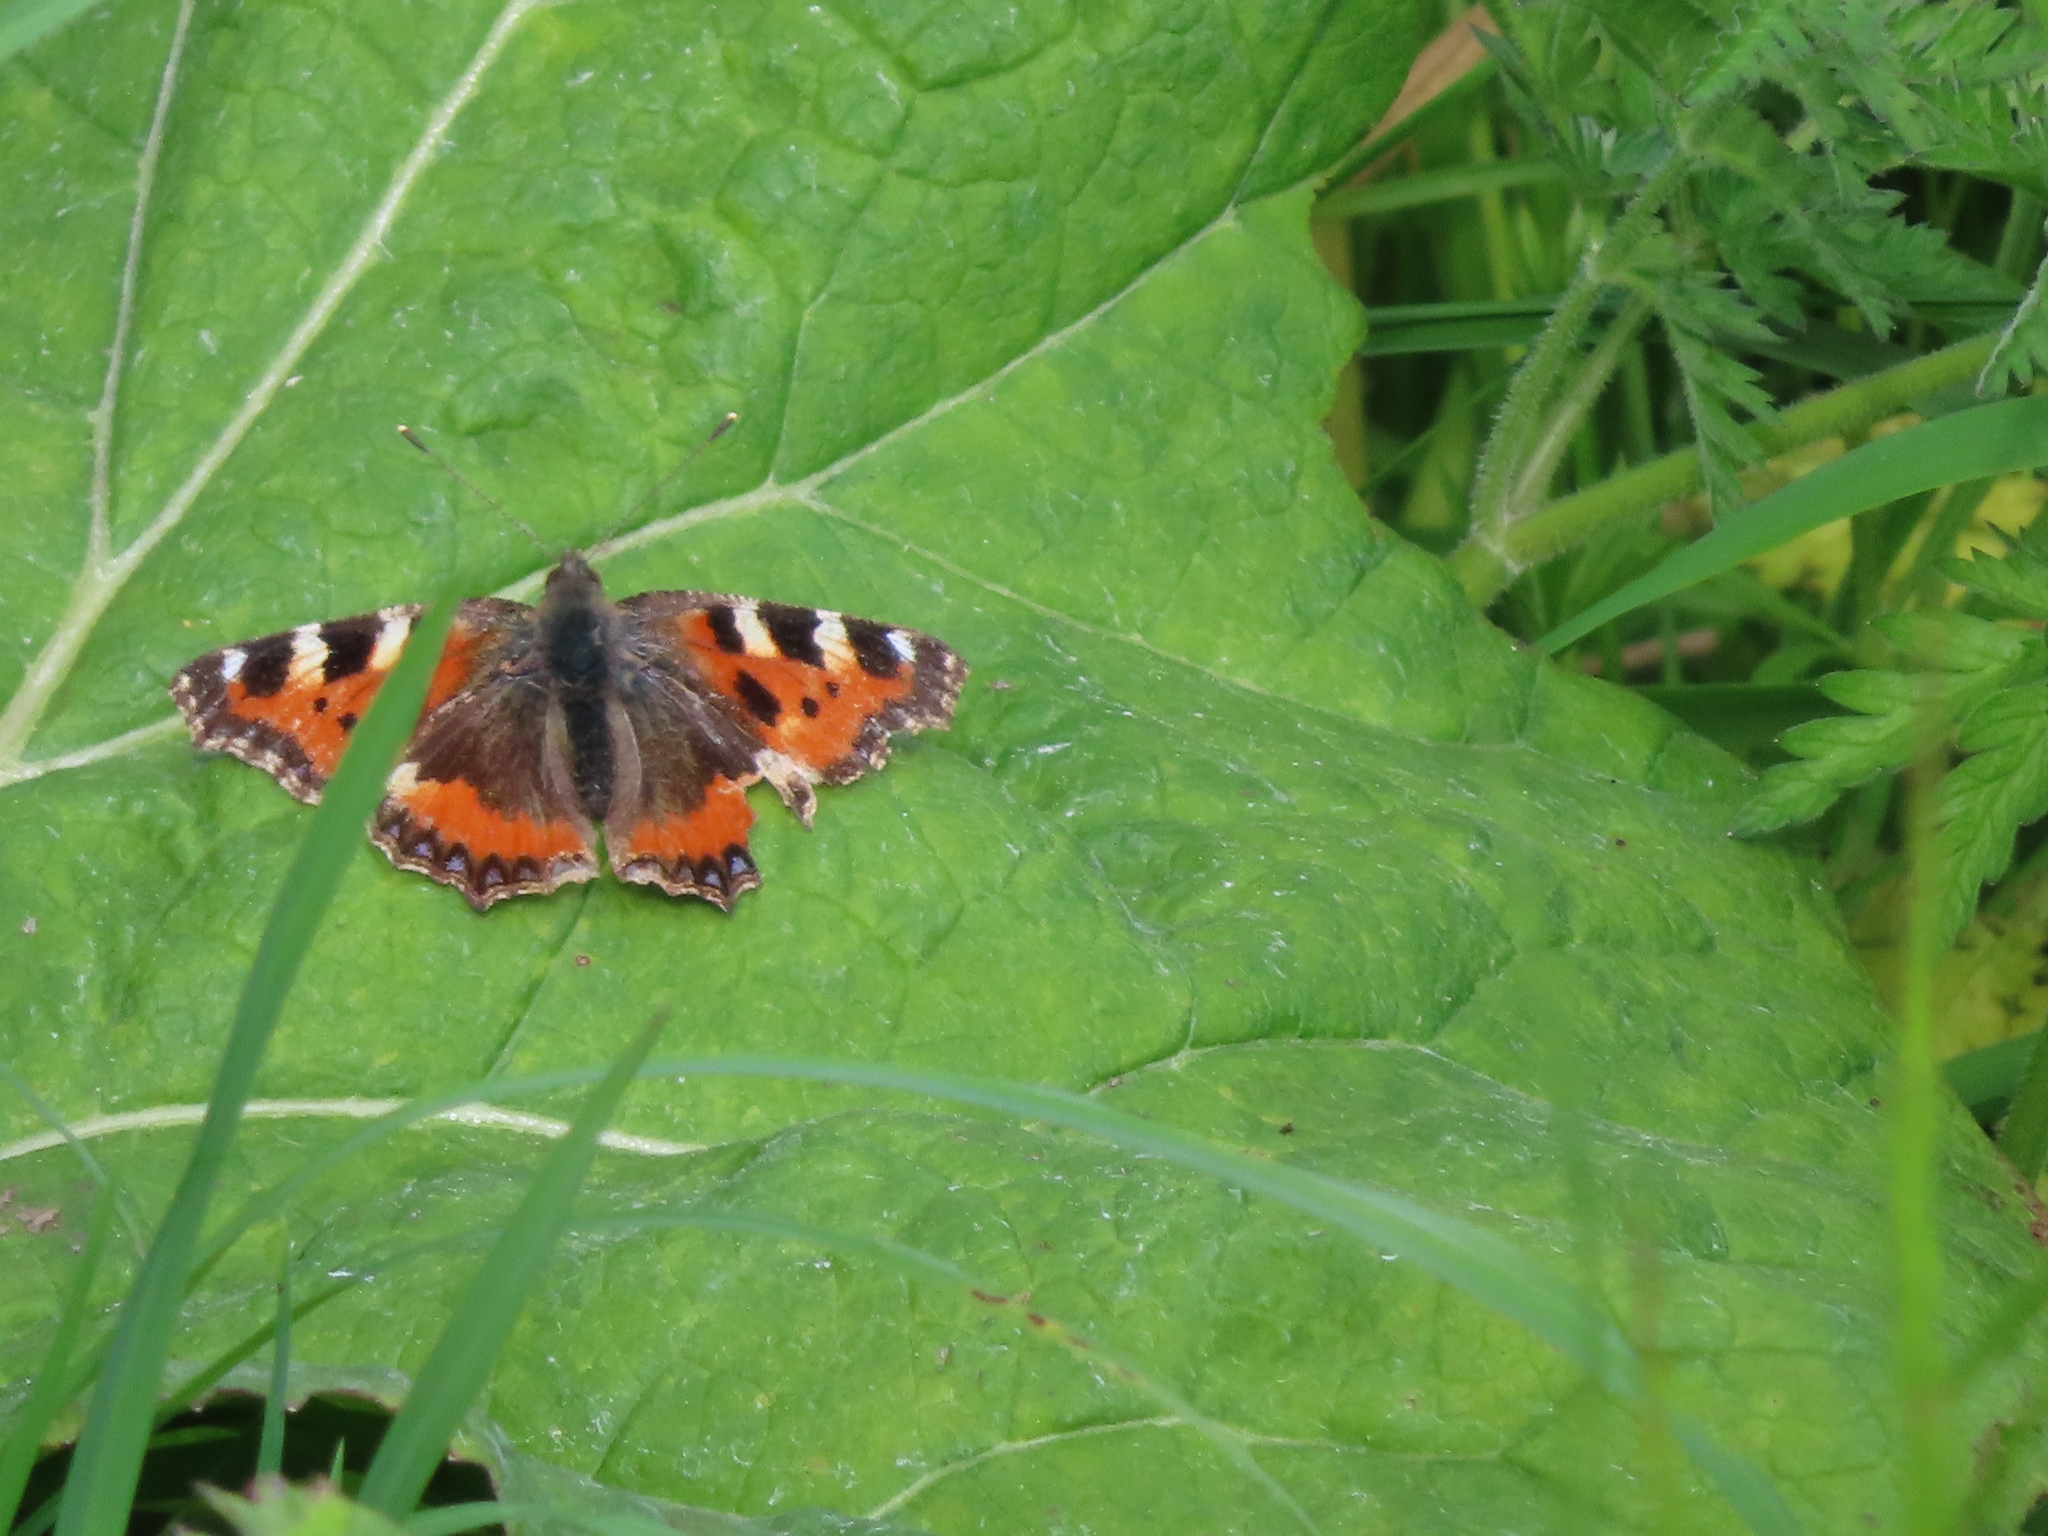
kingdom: Animalia
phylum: Arthropoda
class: Insecta
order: Lepidoptera
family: Nymphalidae
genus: Aglais
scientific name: Aglais urticae
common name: Small tortoiseshell
